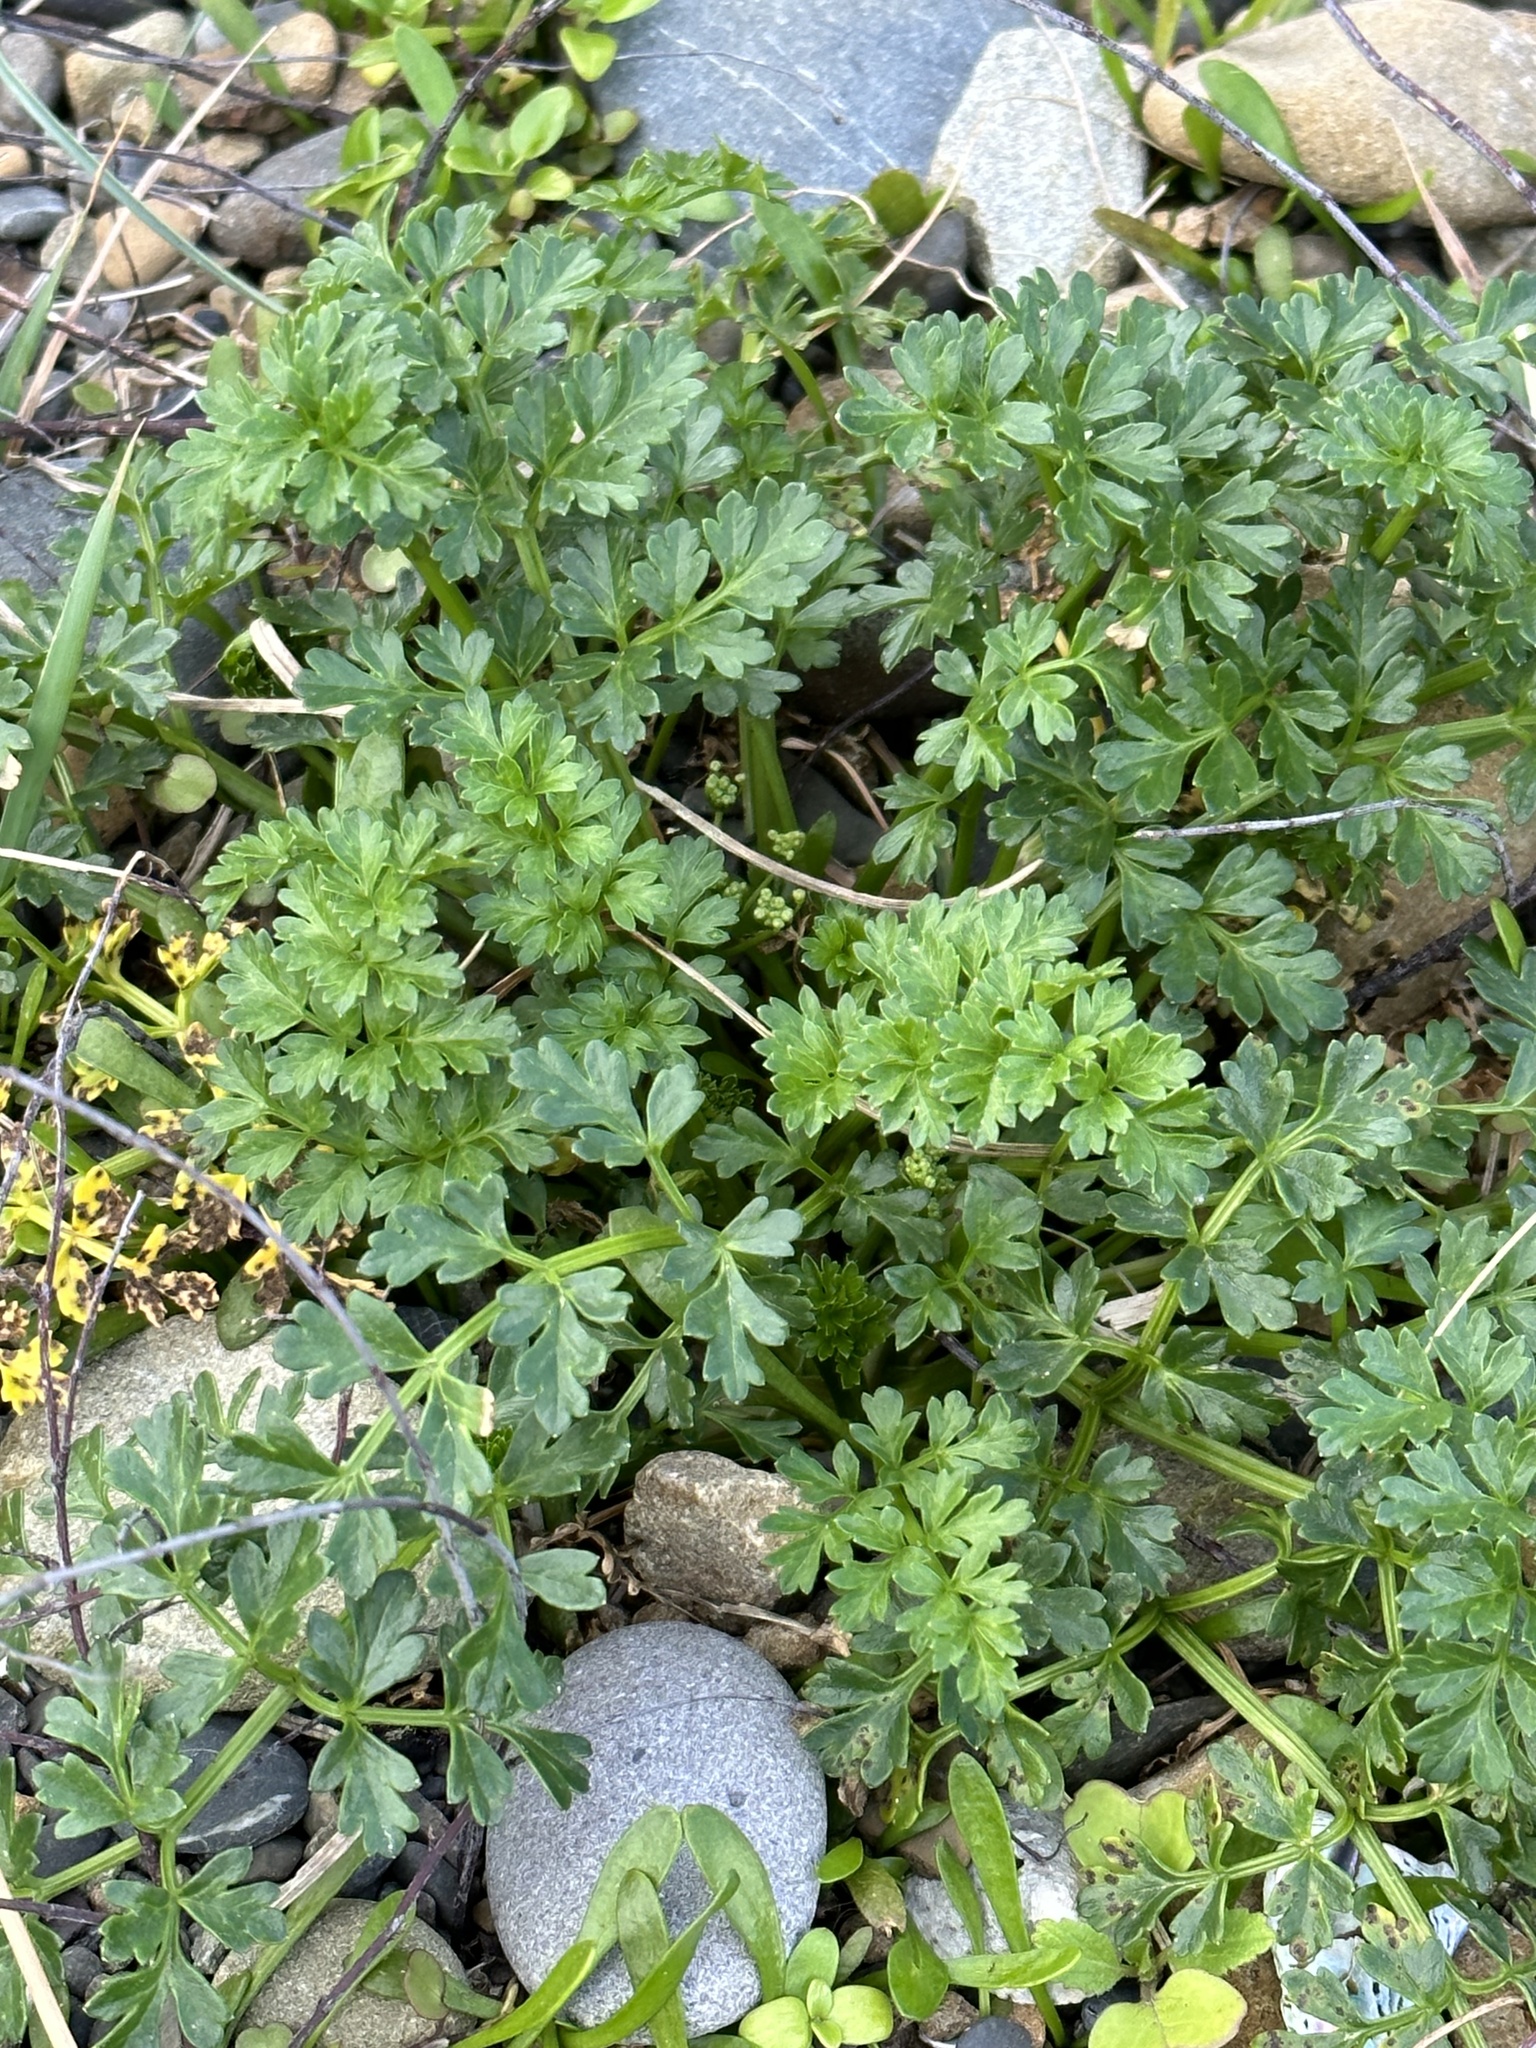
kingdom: Plantae
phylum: Tracheophyta
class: Magnoliopsida
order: Apiales
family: Apiaceae
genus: Apium
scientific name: Apium prostratum
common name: Prostrate marshwort
